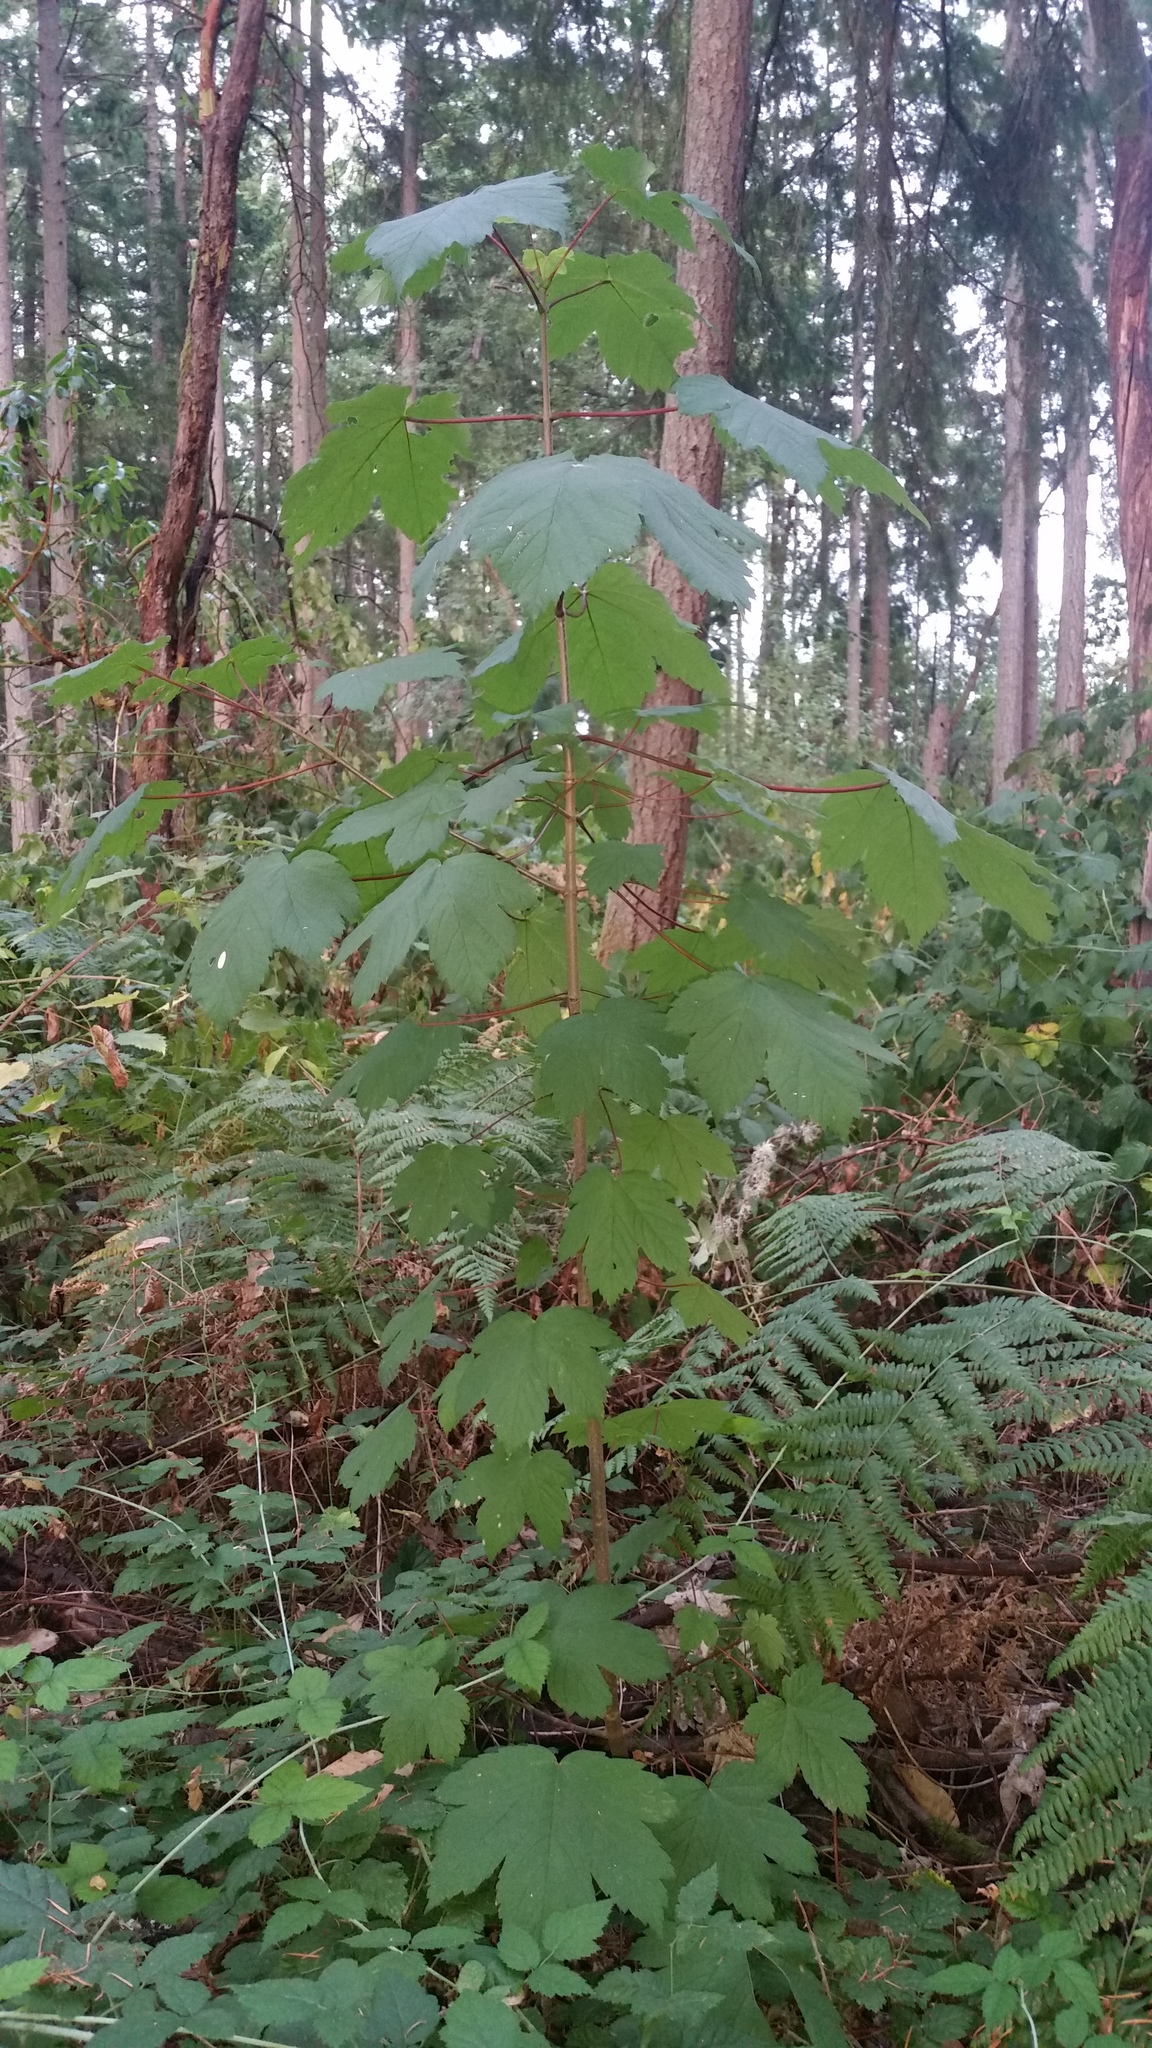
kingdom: Plantae
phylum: Tracheophyta
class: Magnoliopsida
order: Sapindales
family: Sapindaceae
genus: Acer
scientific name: Acer pseudoplatanus
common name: Sycamore
